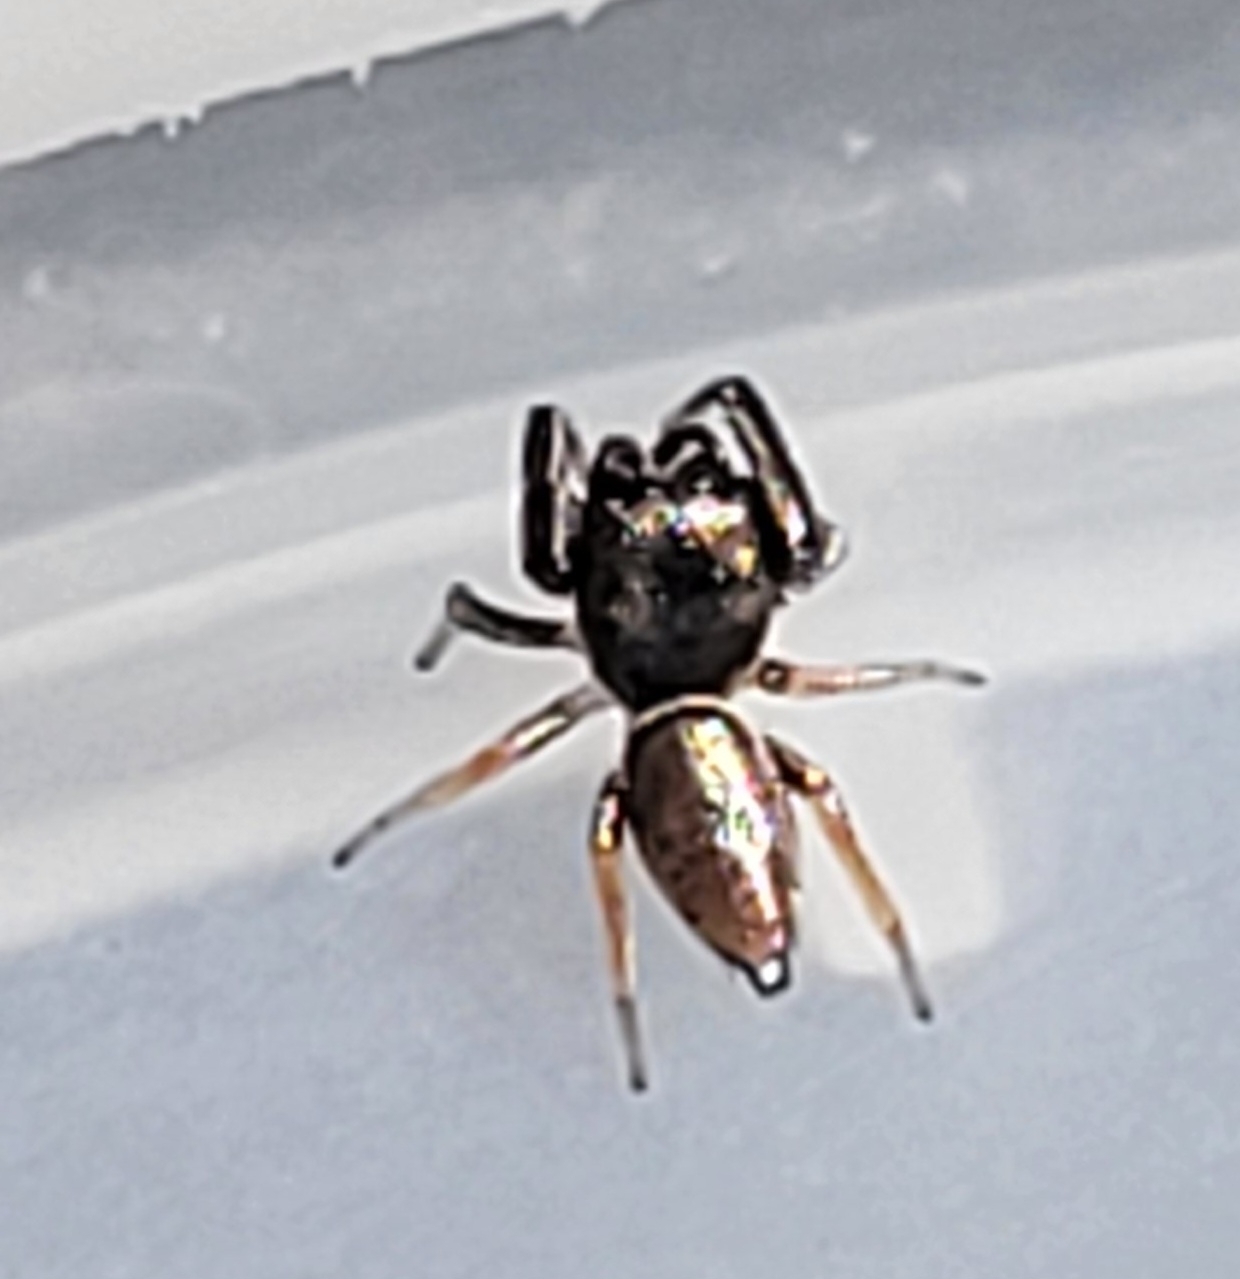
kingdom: Animalia
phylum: Arthropoda
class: Arachnida
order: Araneae
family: Salticidae
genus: Sassacus
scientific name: Sassacus vitis
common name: Jumping spiders
